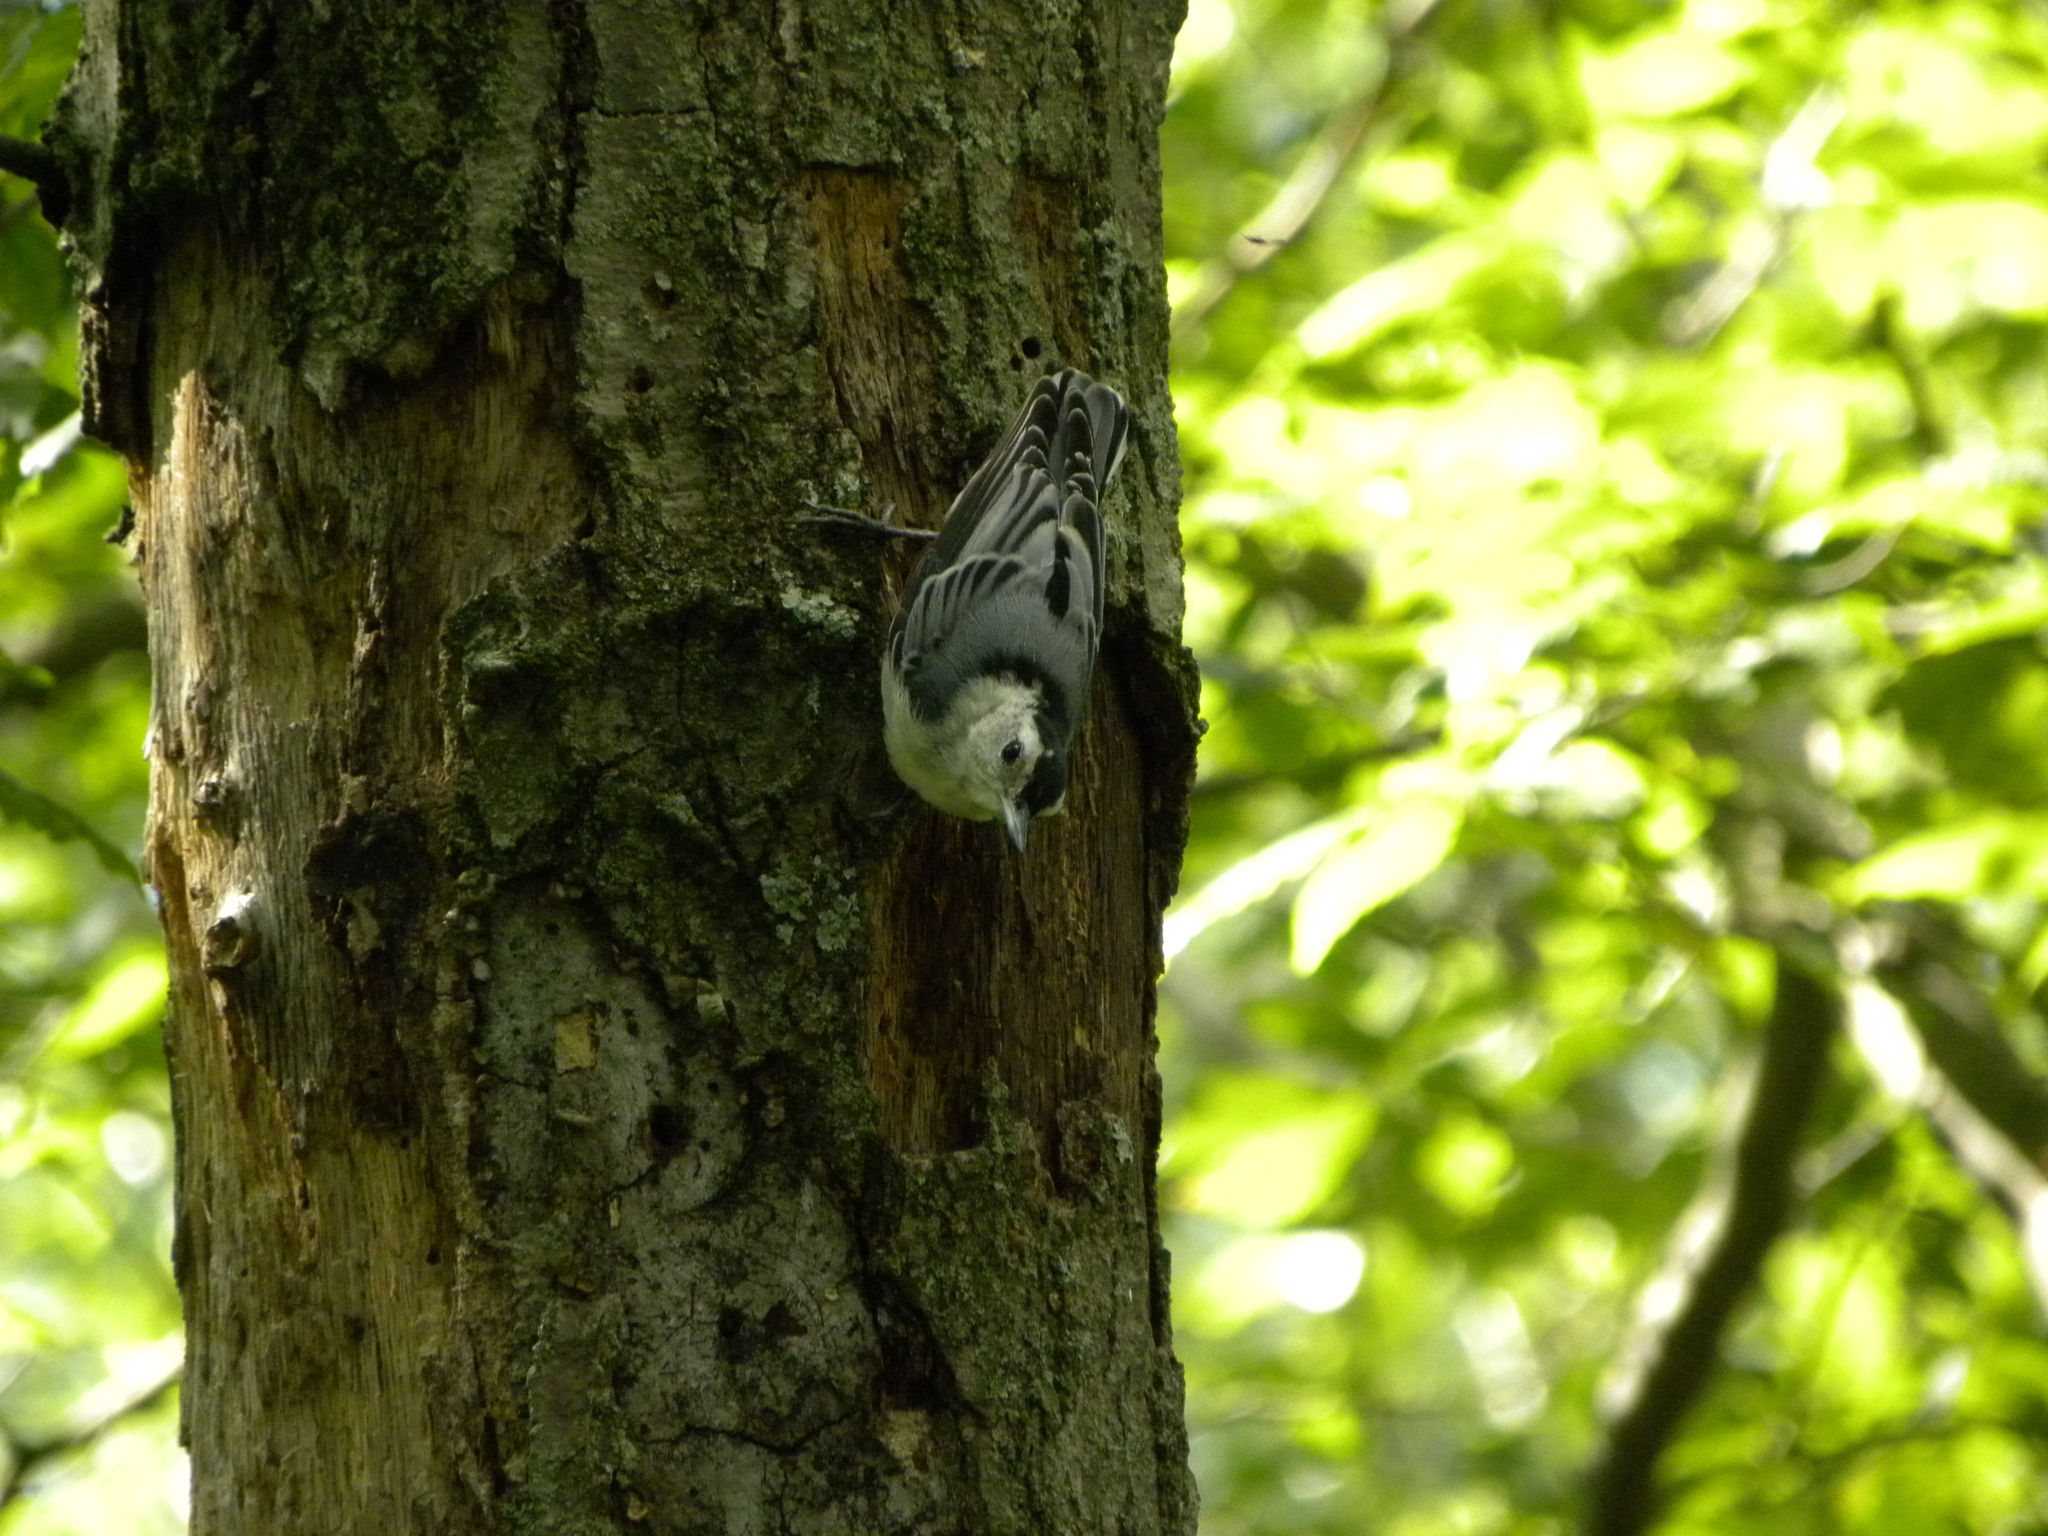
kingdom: Animalia
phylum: Chordata
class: Aves
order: Passeriformes
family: Sittidae
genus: Sitta
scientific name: Sitta carolinensis
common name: White-breasted nuthatch
